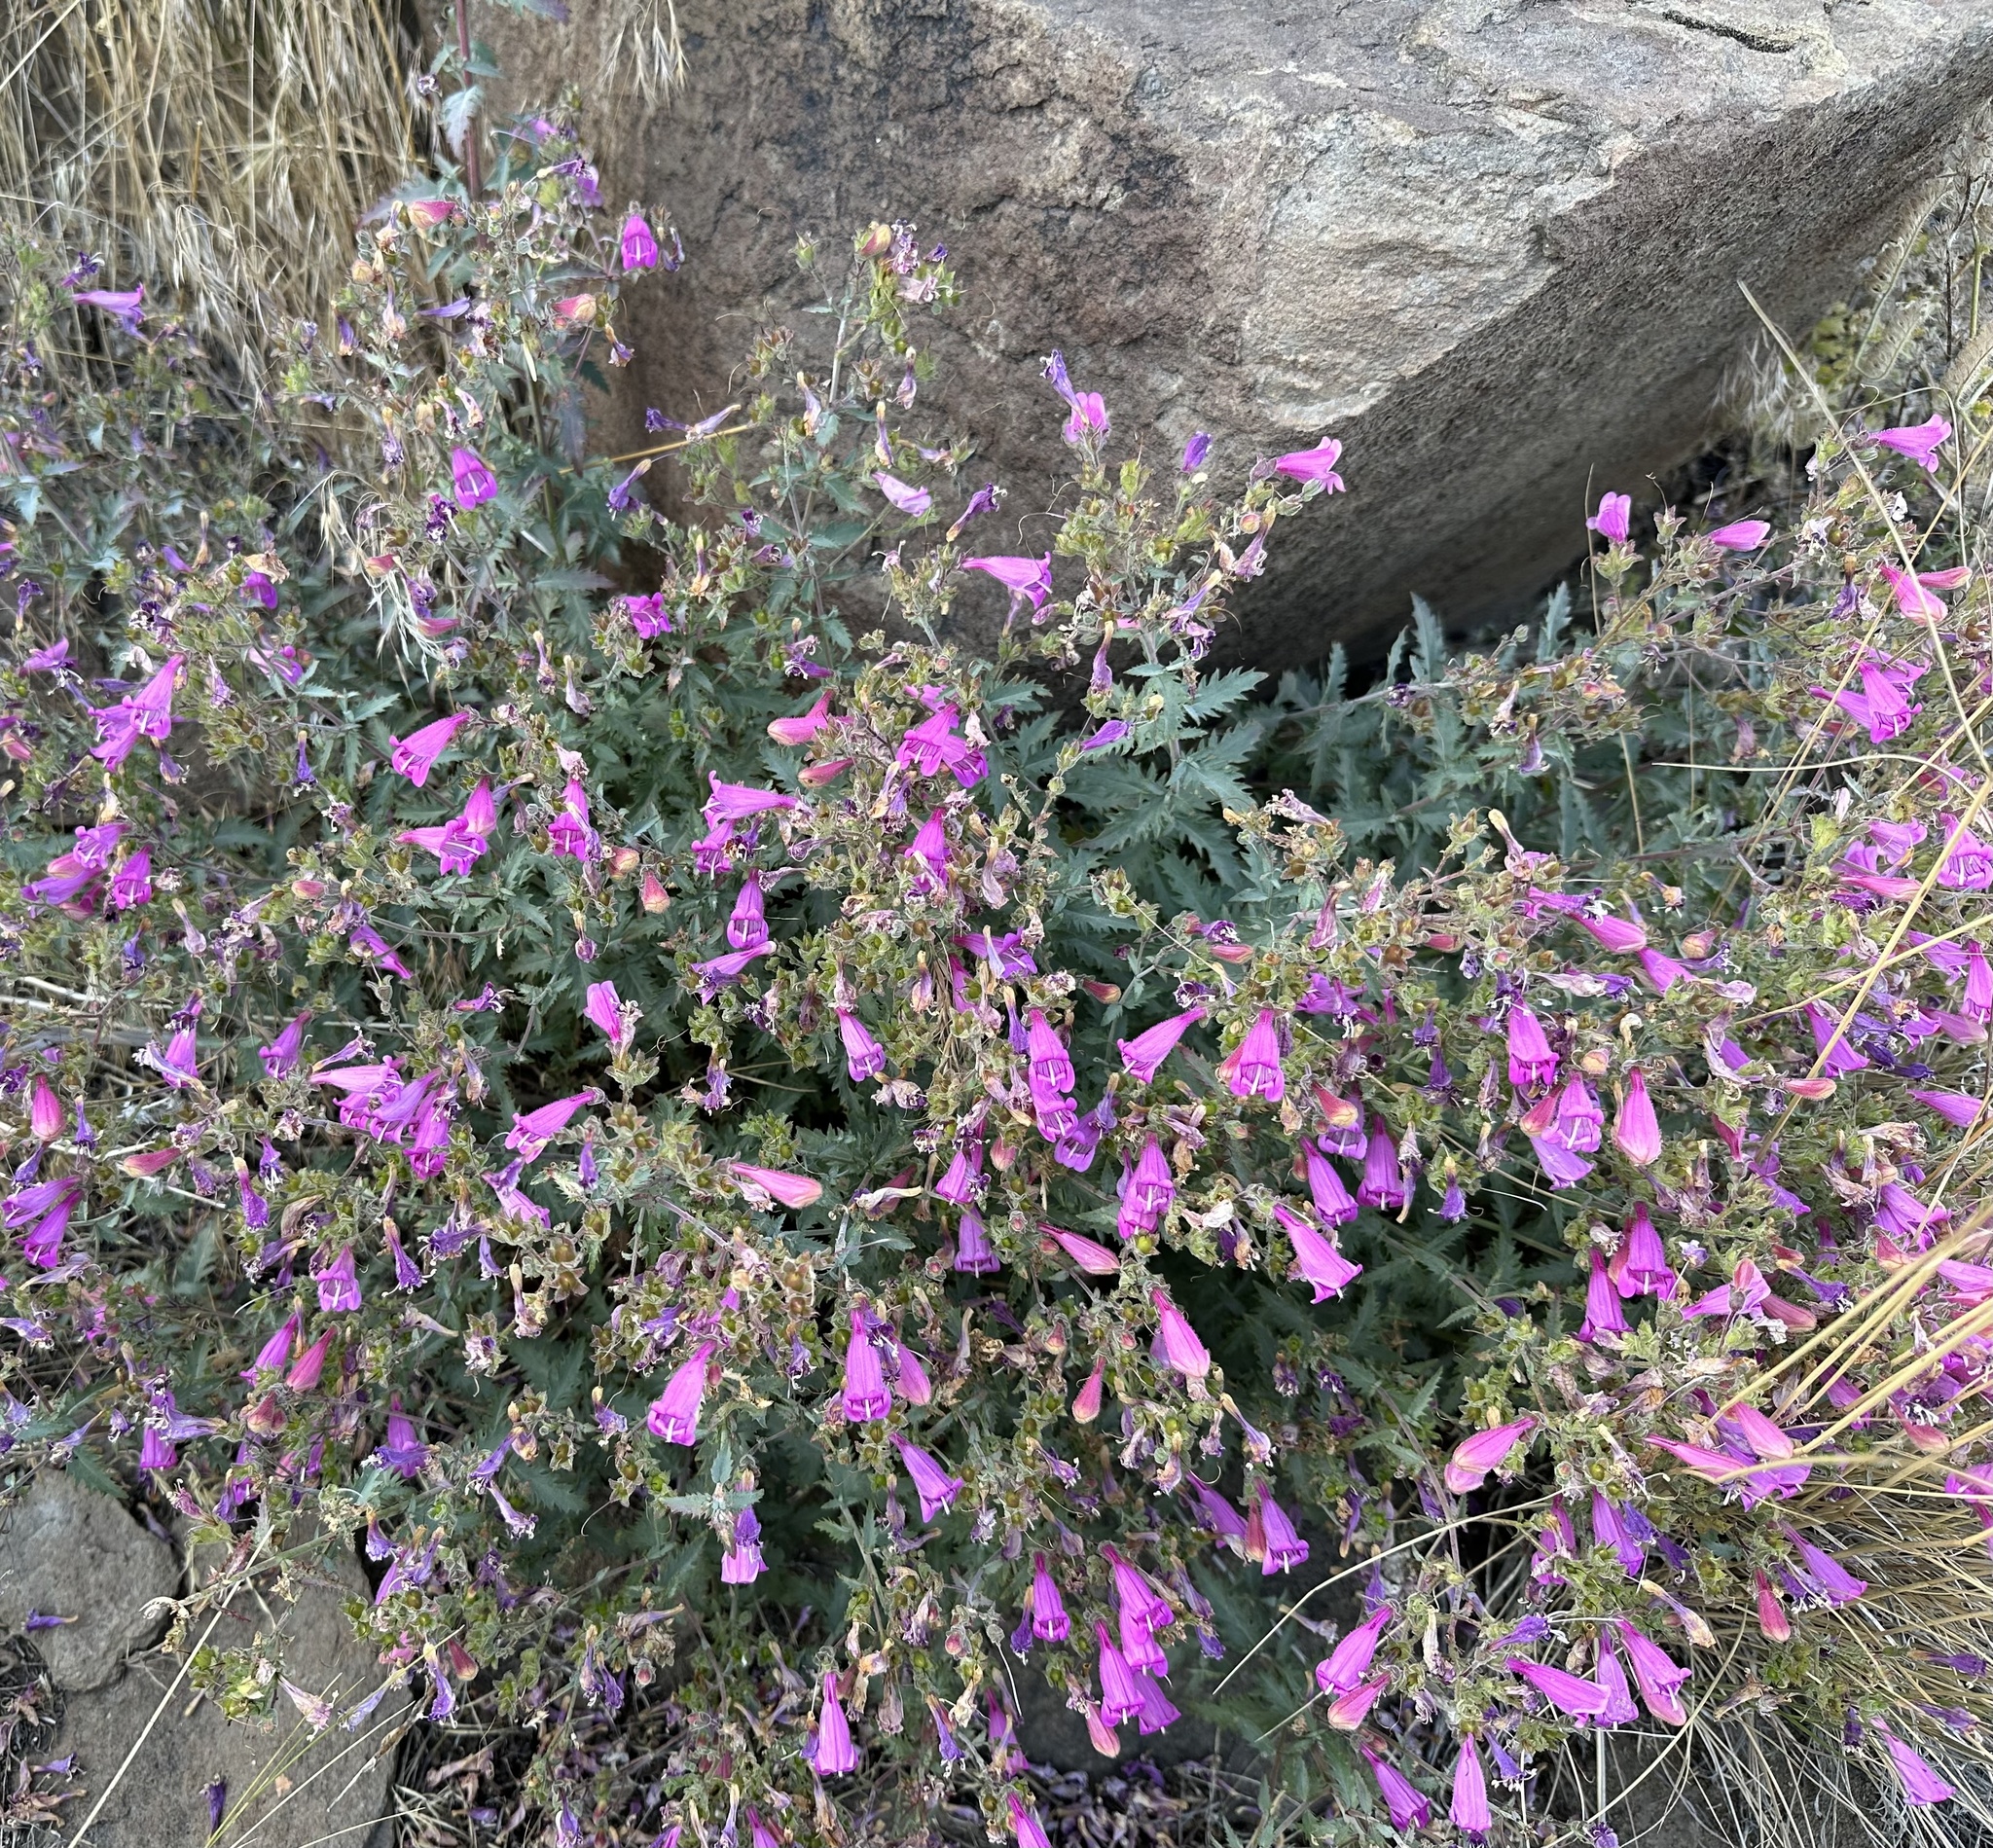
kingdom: Plantae
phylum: Tracheophyta
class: Magnoliopsida
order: Lamiales
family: Plantaginaceae
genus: Penstemon
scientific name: Penstemon richardsonii
